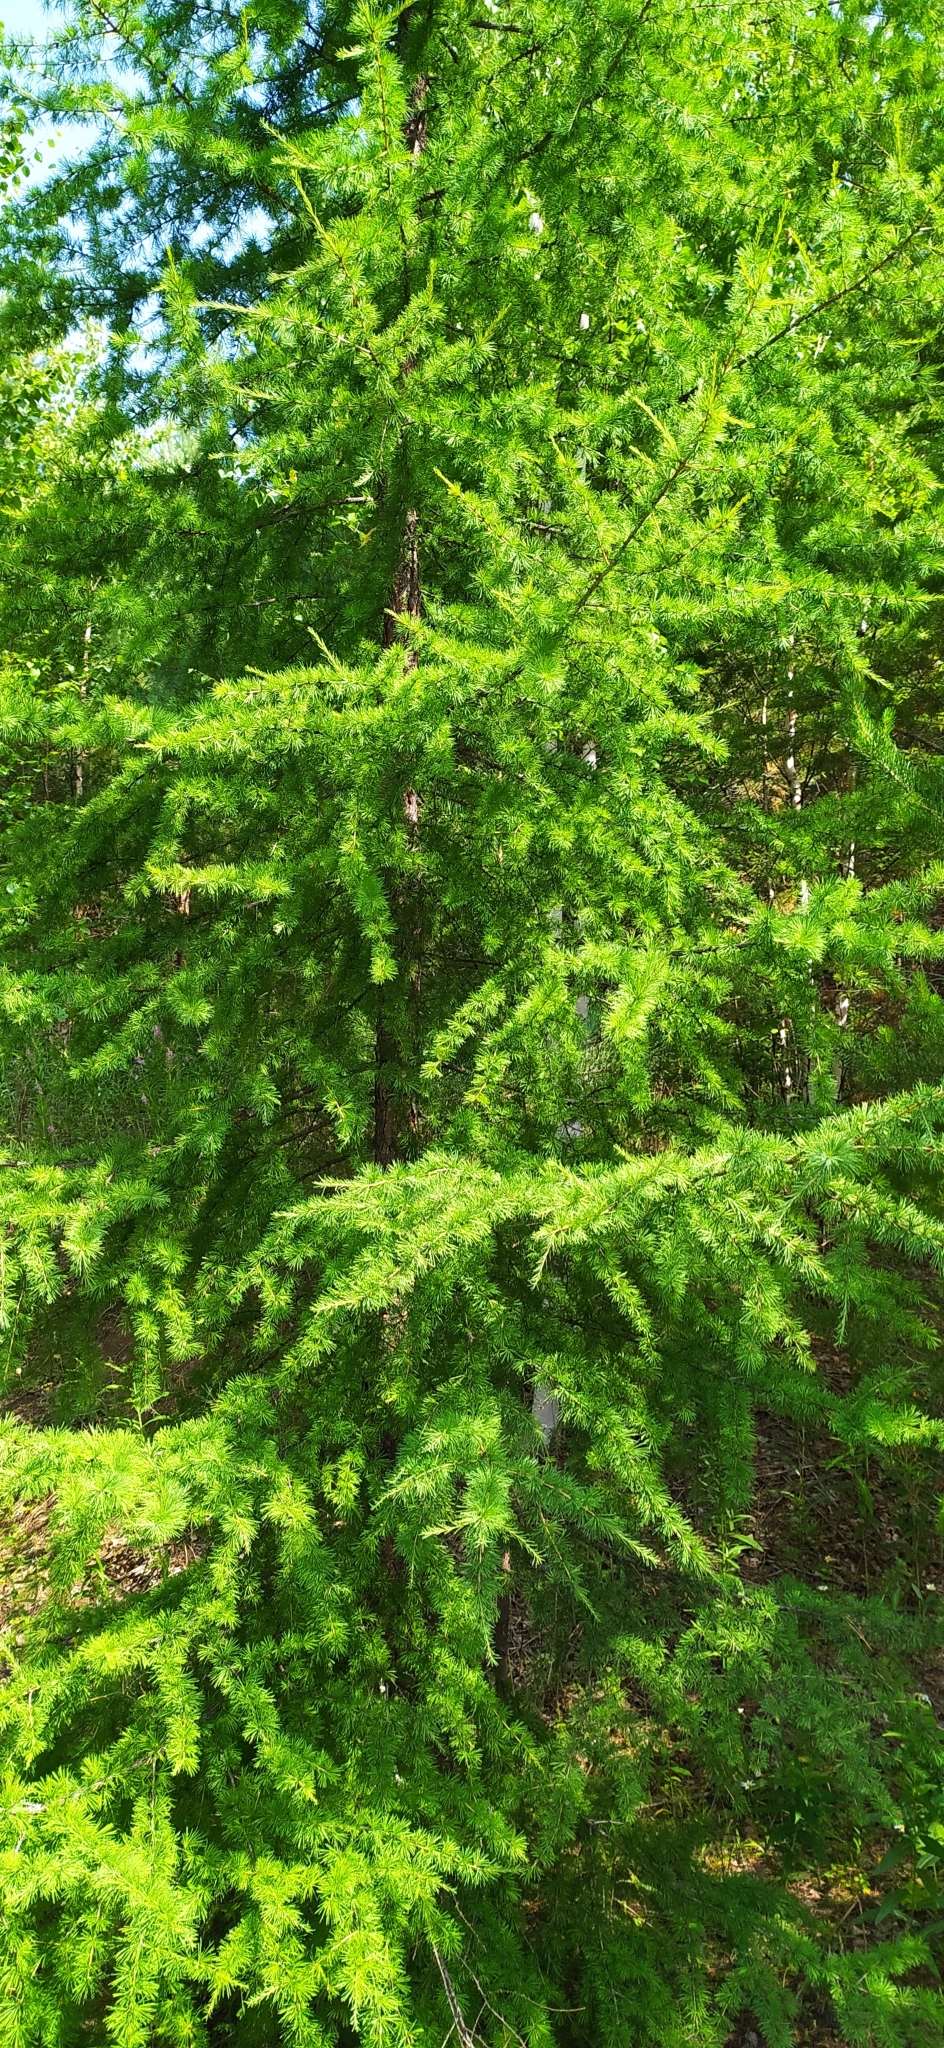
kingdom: Plantae
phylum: Tracheophyta
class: Pinopsida
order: Pinales
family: Pinaceae
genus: Larix
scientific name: Larix sibirica
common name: Siberian larch
